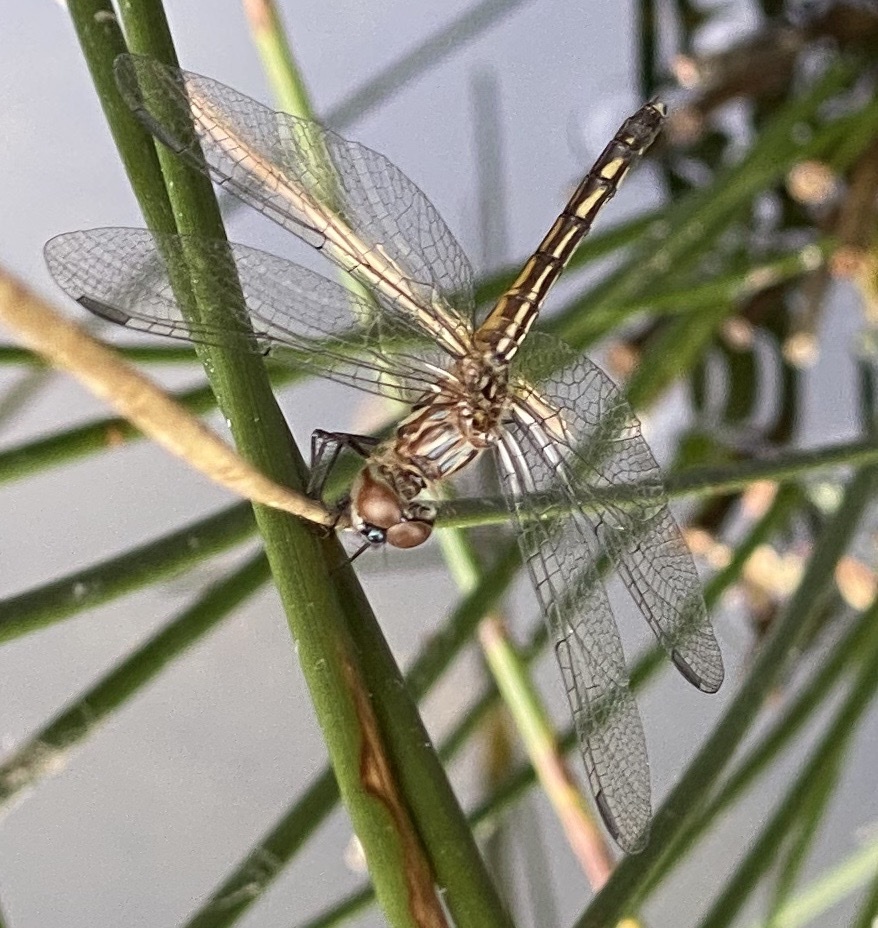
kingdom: Animalia
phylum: Arthropoda
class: Insecta
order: Odonata
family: Libellulidae
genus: Pachydiplax
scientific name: Pachydiplax longipennis
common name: Blue dasher
